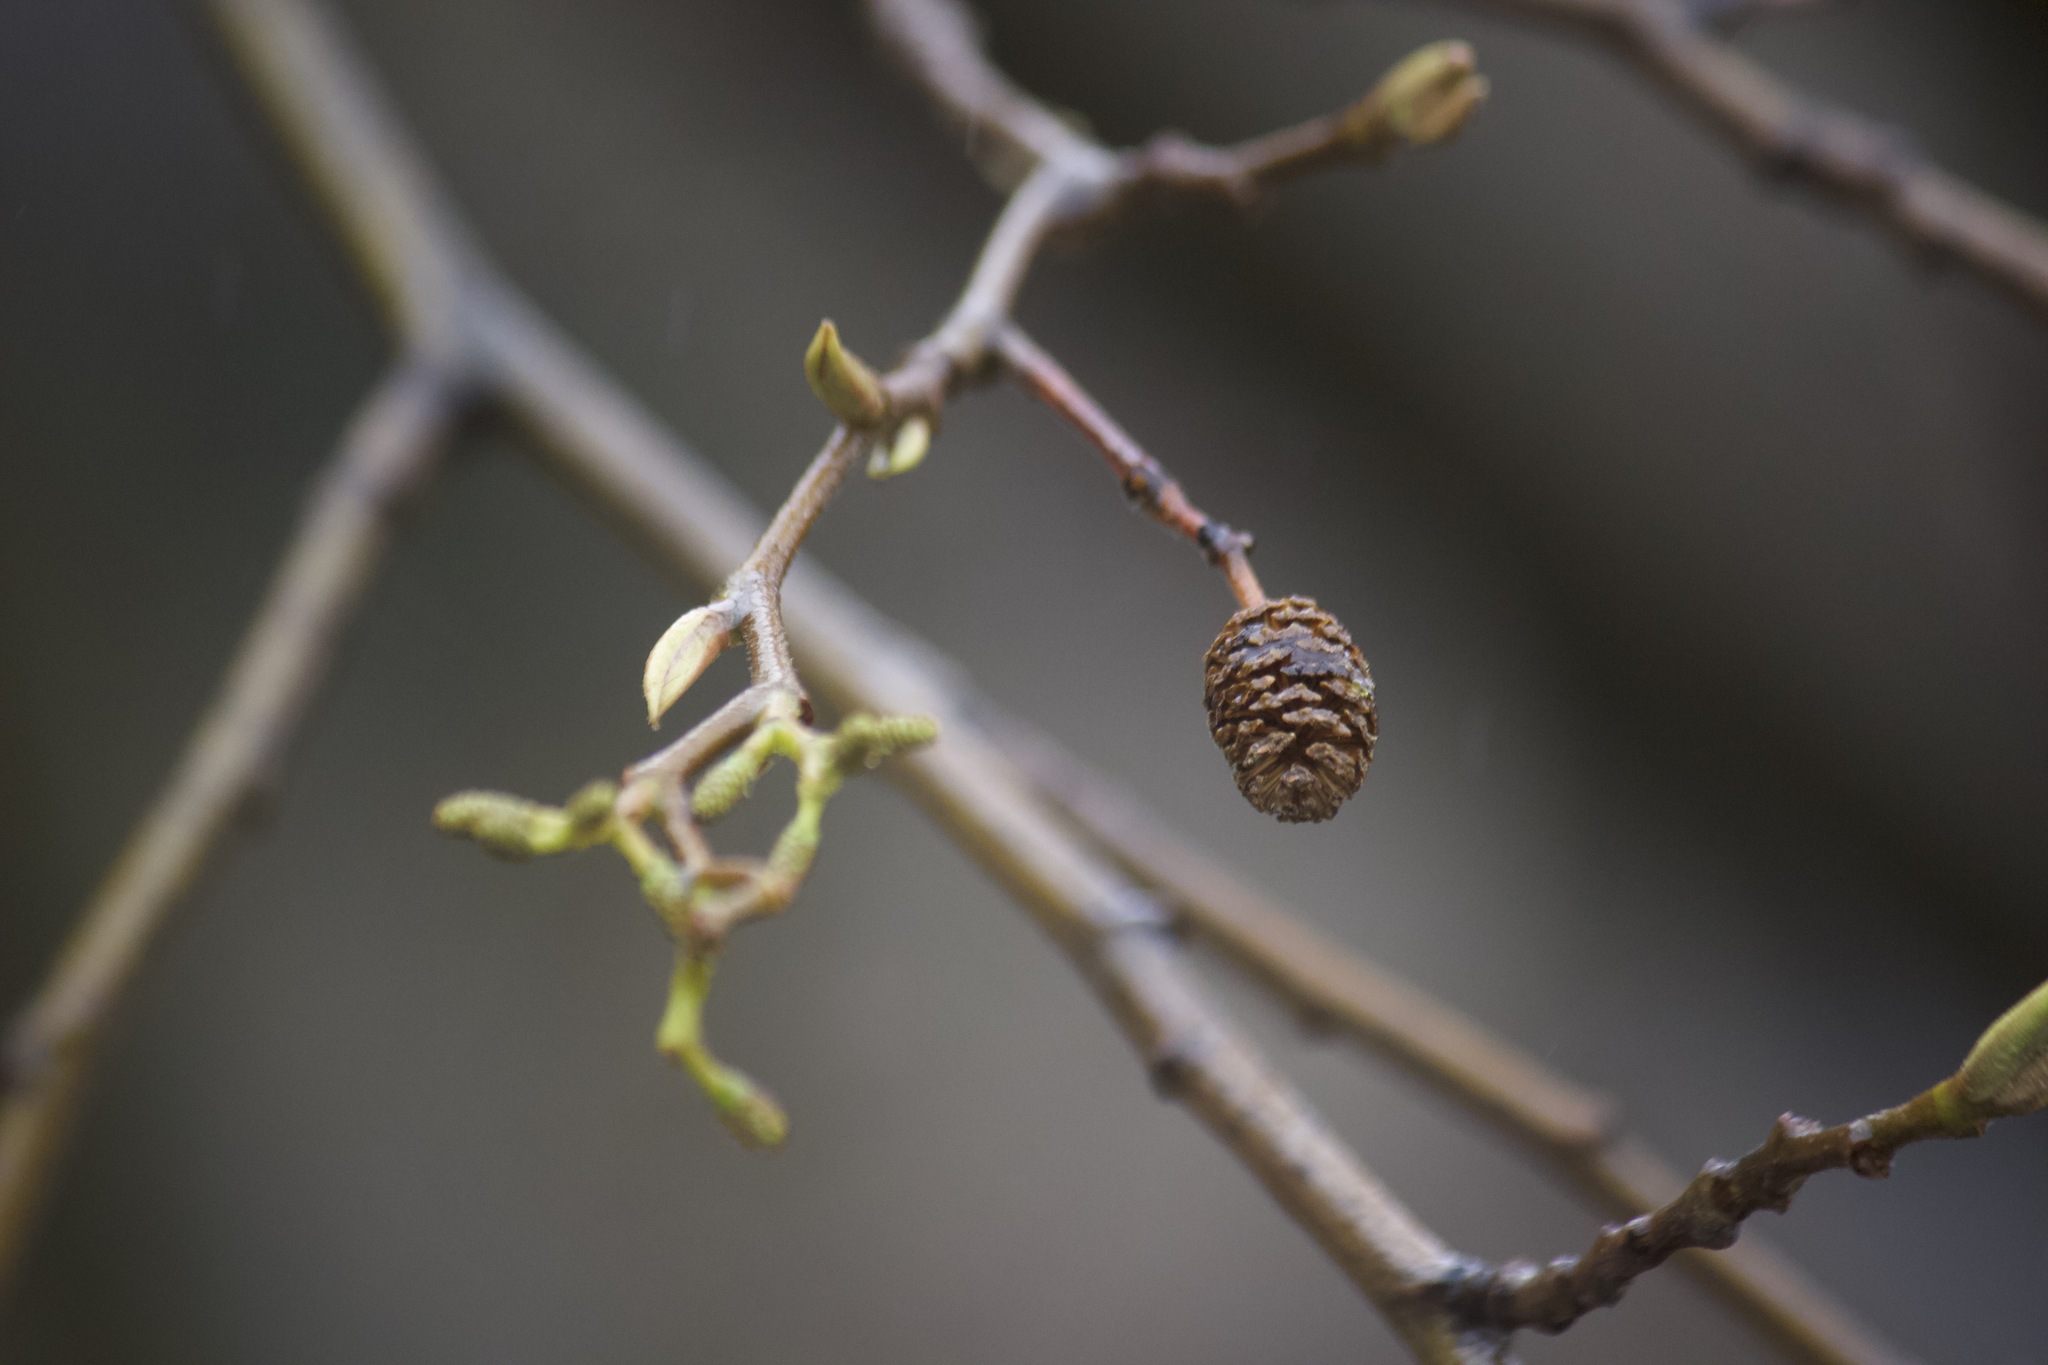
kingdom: Plantae
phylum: Tracheophyta
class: Magnoliopsida
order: Fagales
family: Betulaceae
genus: Alnus
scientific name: Alnus rhombifolia
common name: California alder
